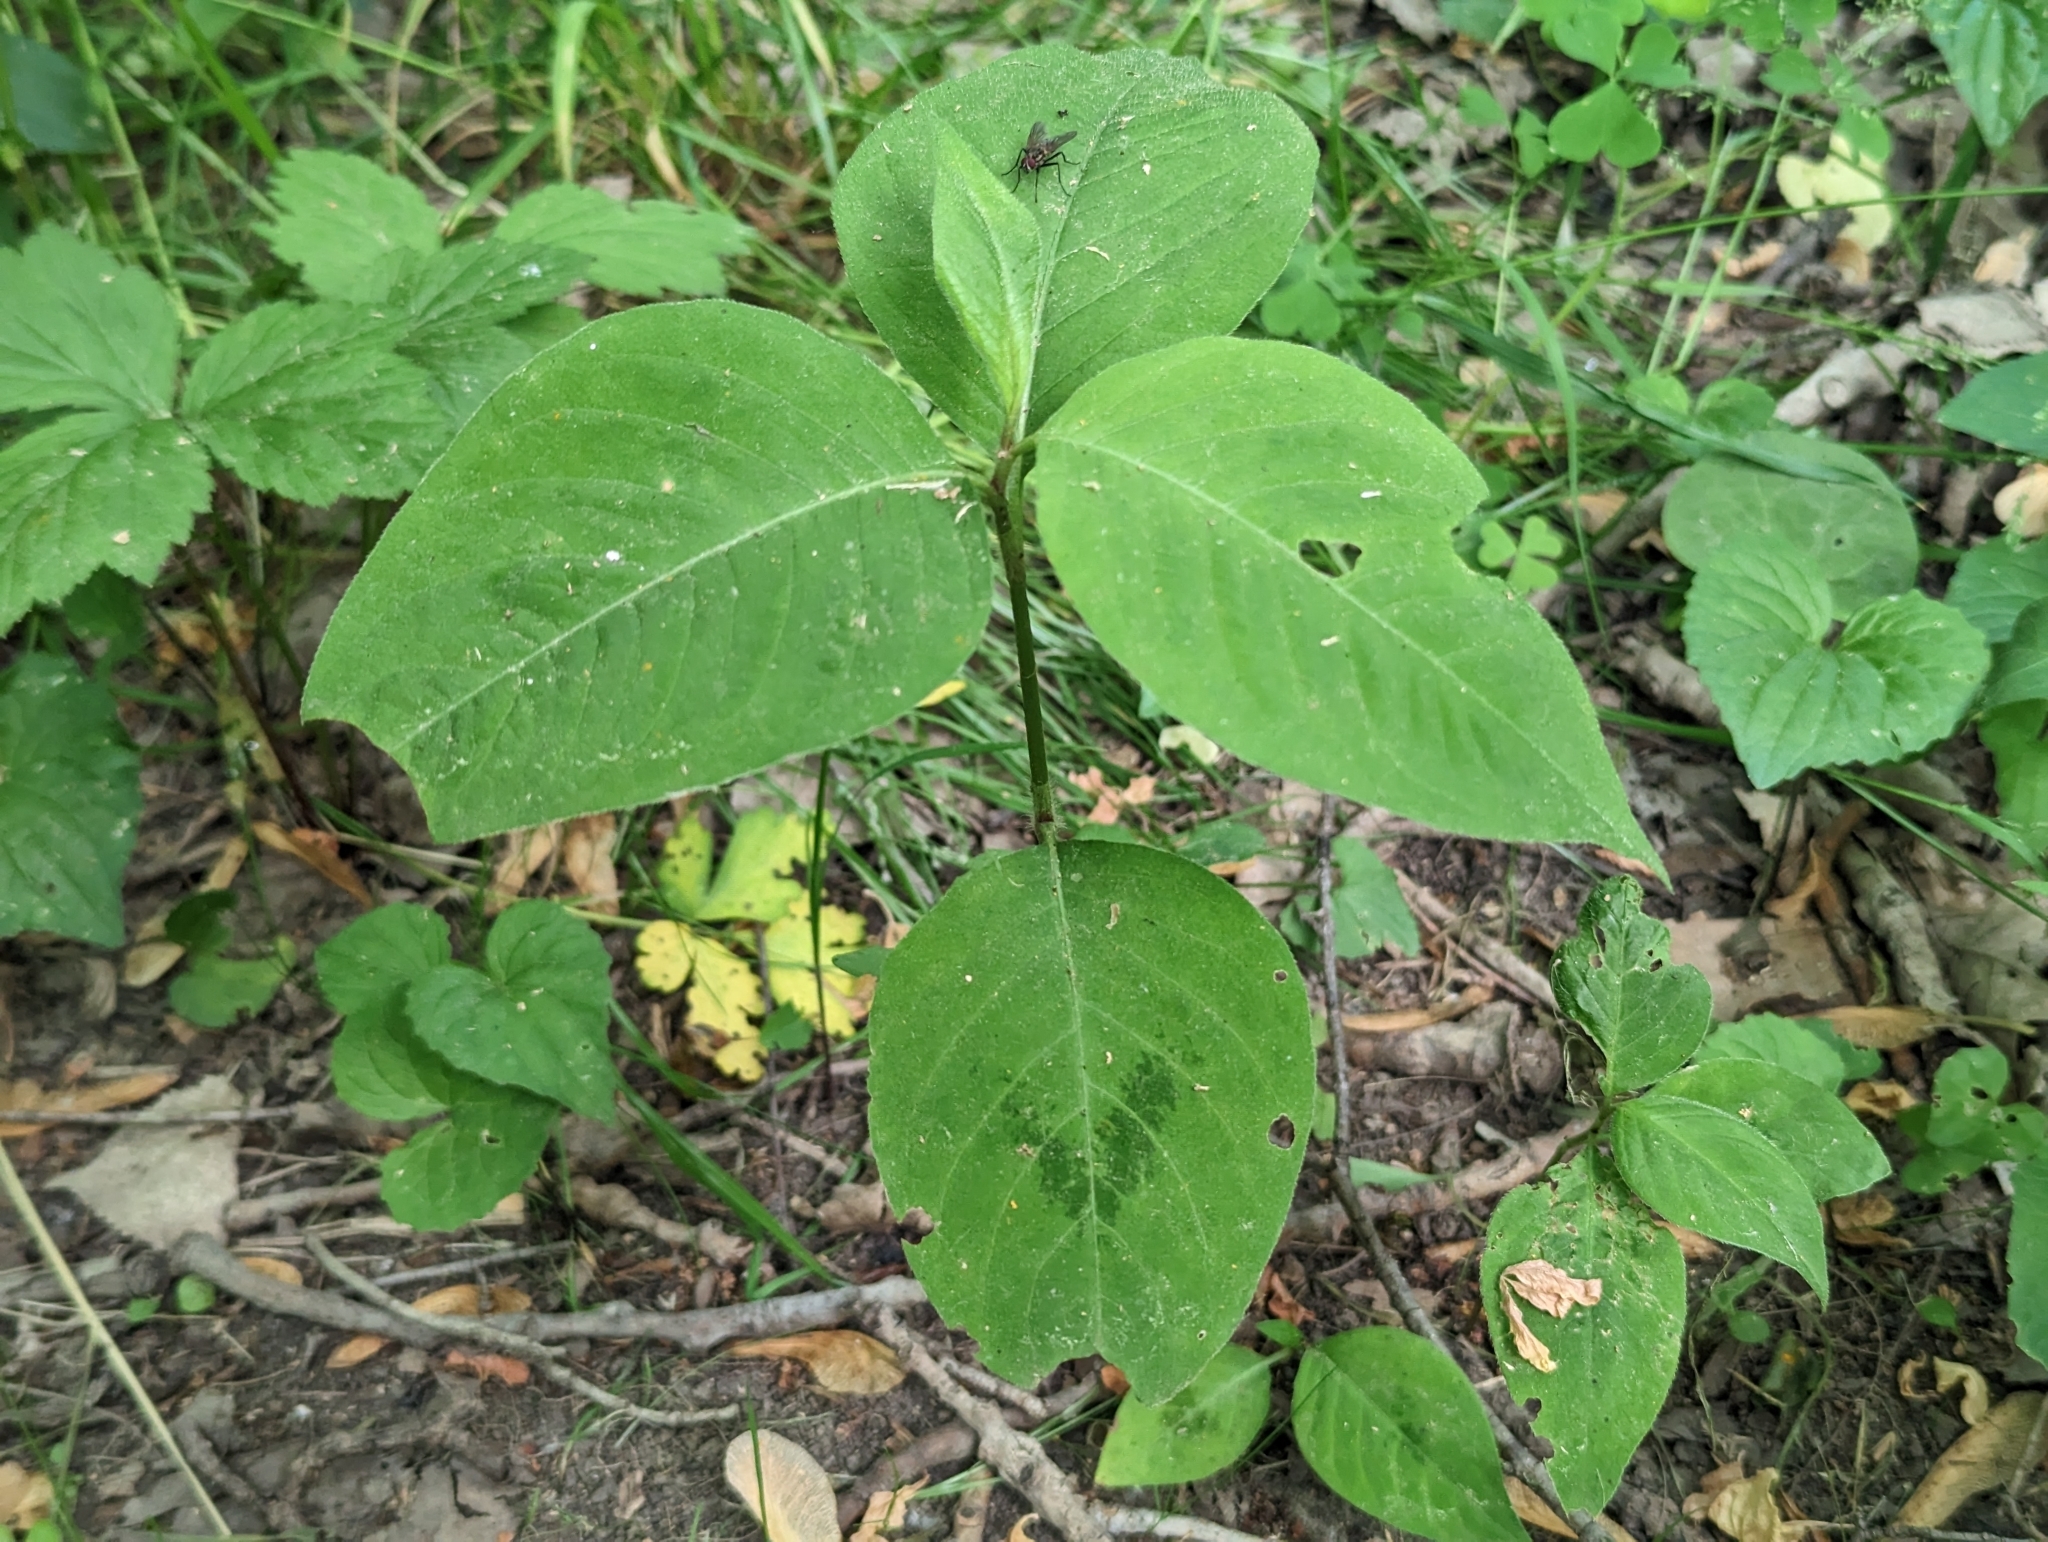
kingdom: Plantae
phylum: Tracheophyta
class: Magnoliopsida
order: Caryophyllales
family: Polygonaceae
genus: Persicaria
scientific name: Persicaria virginiana
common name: Jumpseed
